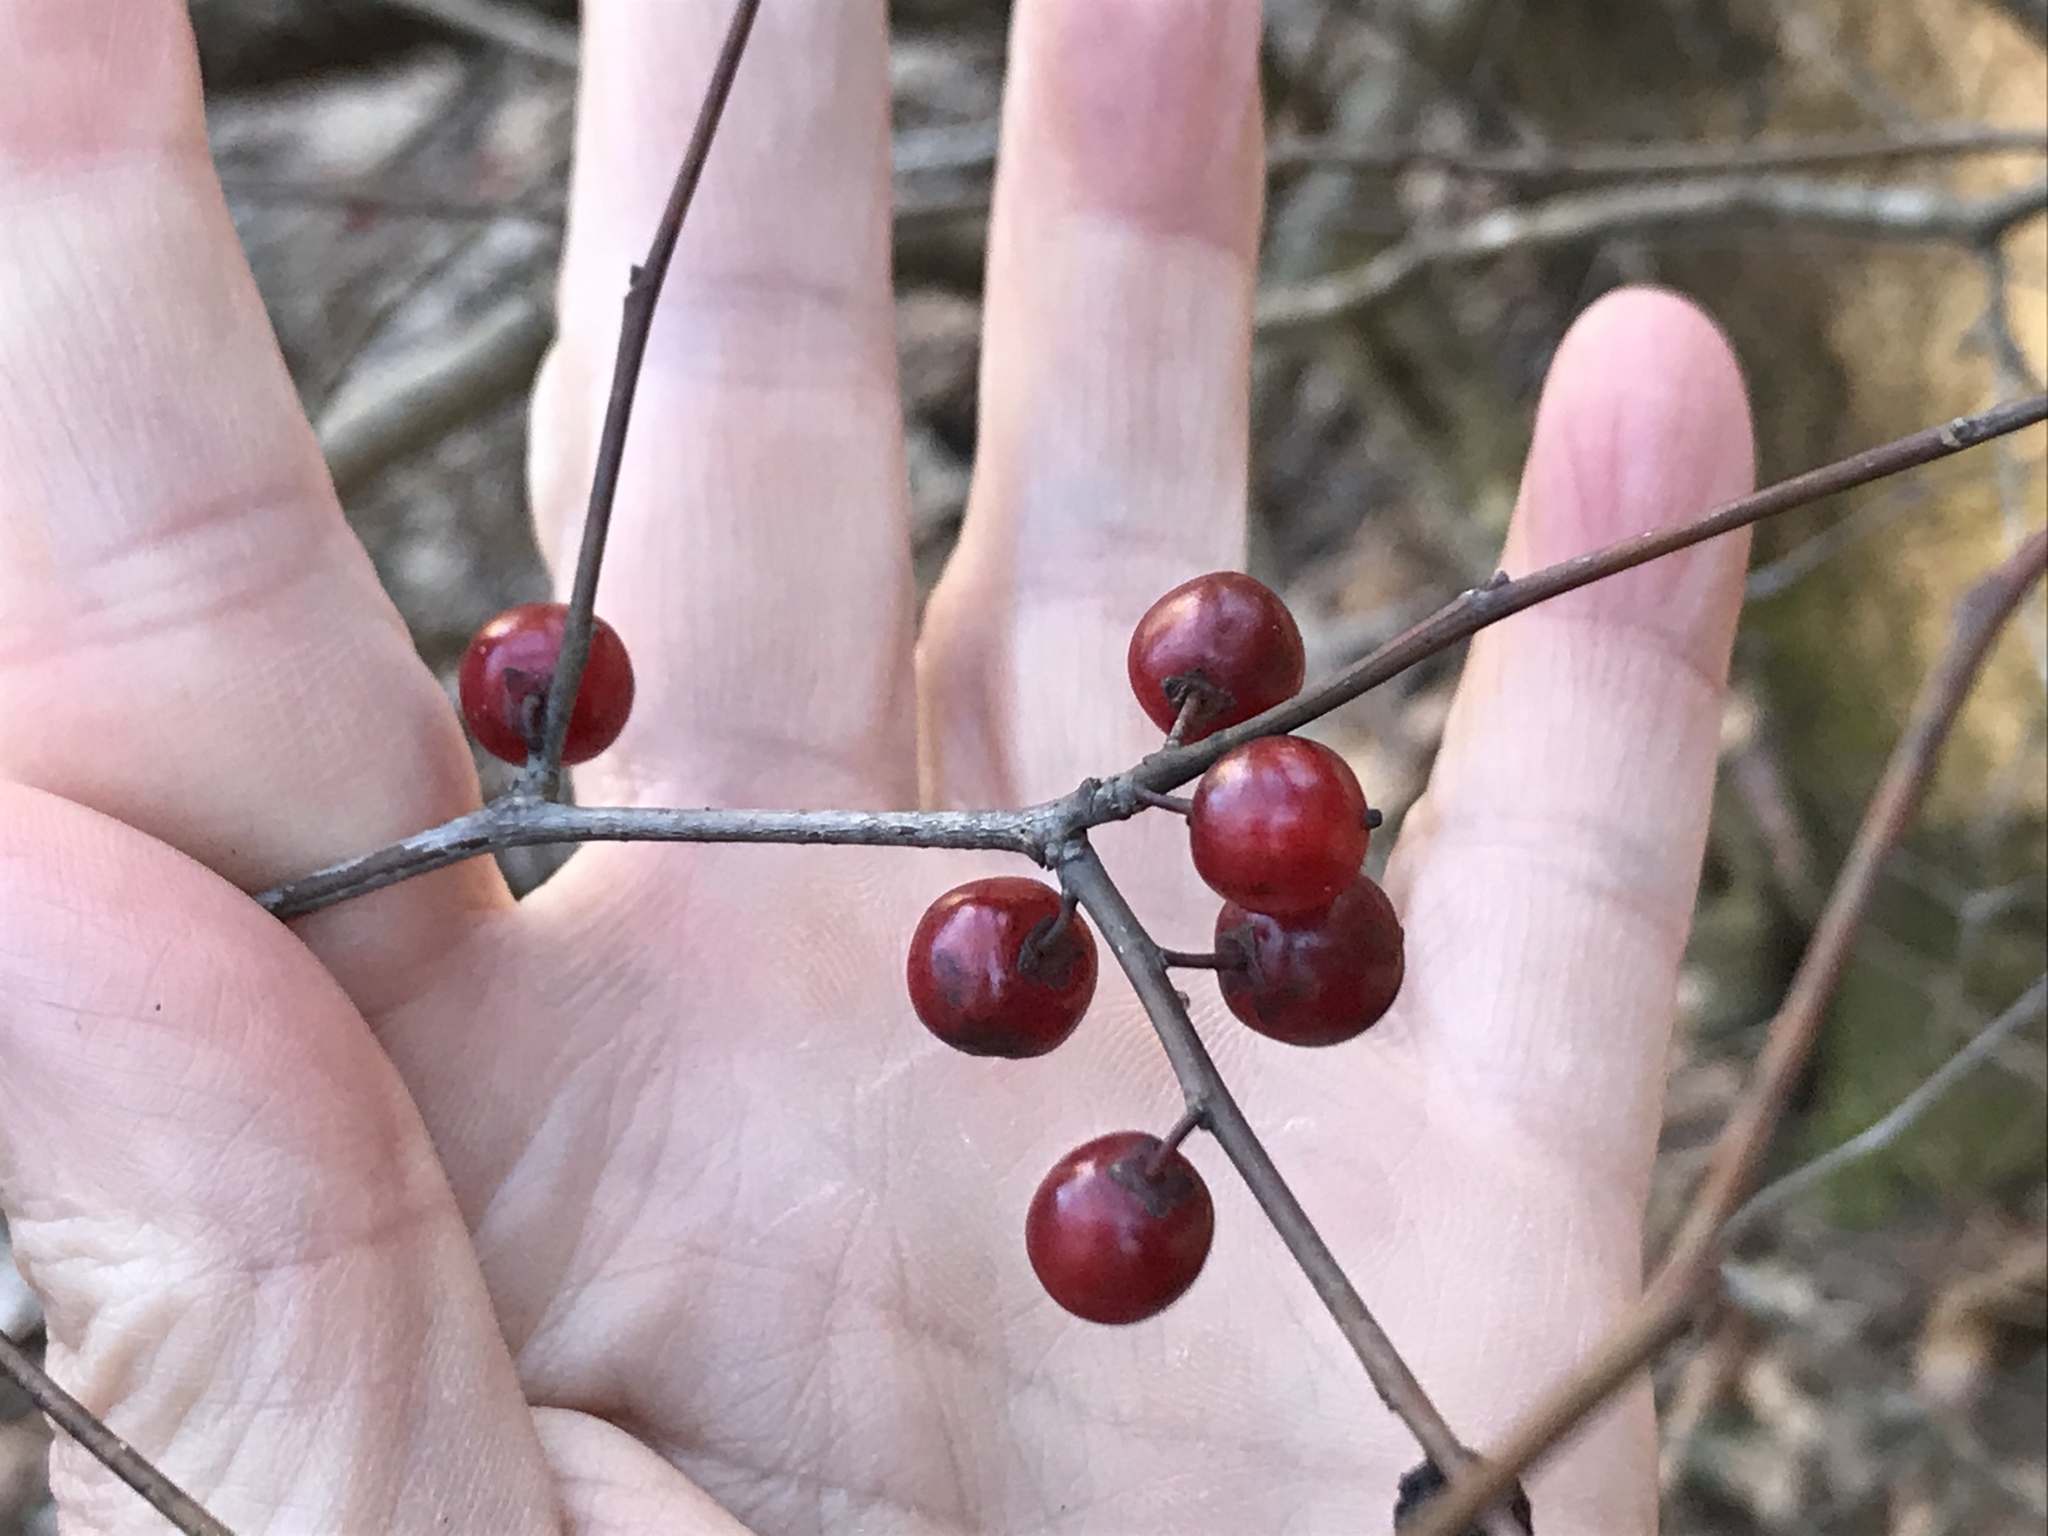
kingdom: Plantae
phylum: Tracheophyta
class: Magnoliopsida
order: Aquifoliales
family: Aquifoliaceae
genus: Ilex
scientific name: Ilex decidua
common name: Possum-haw
